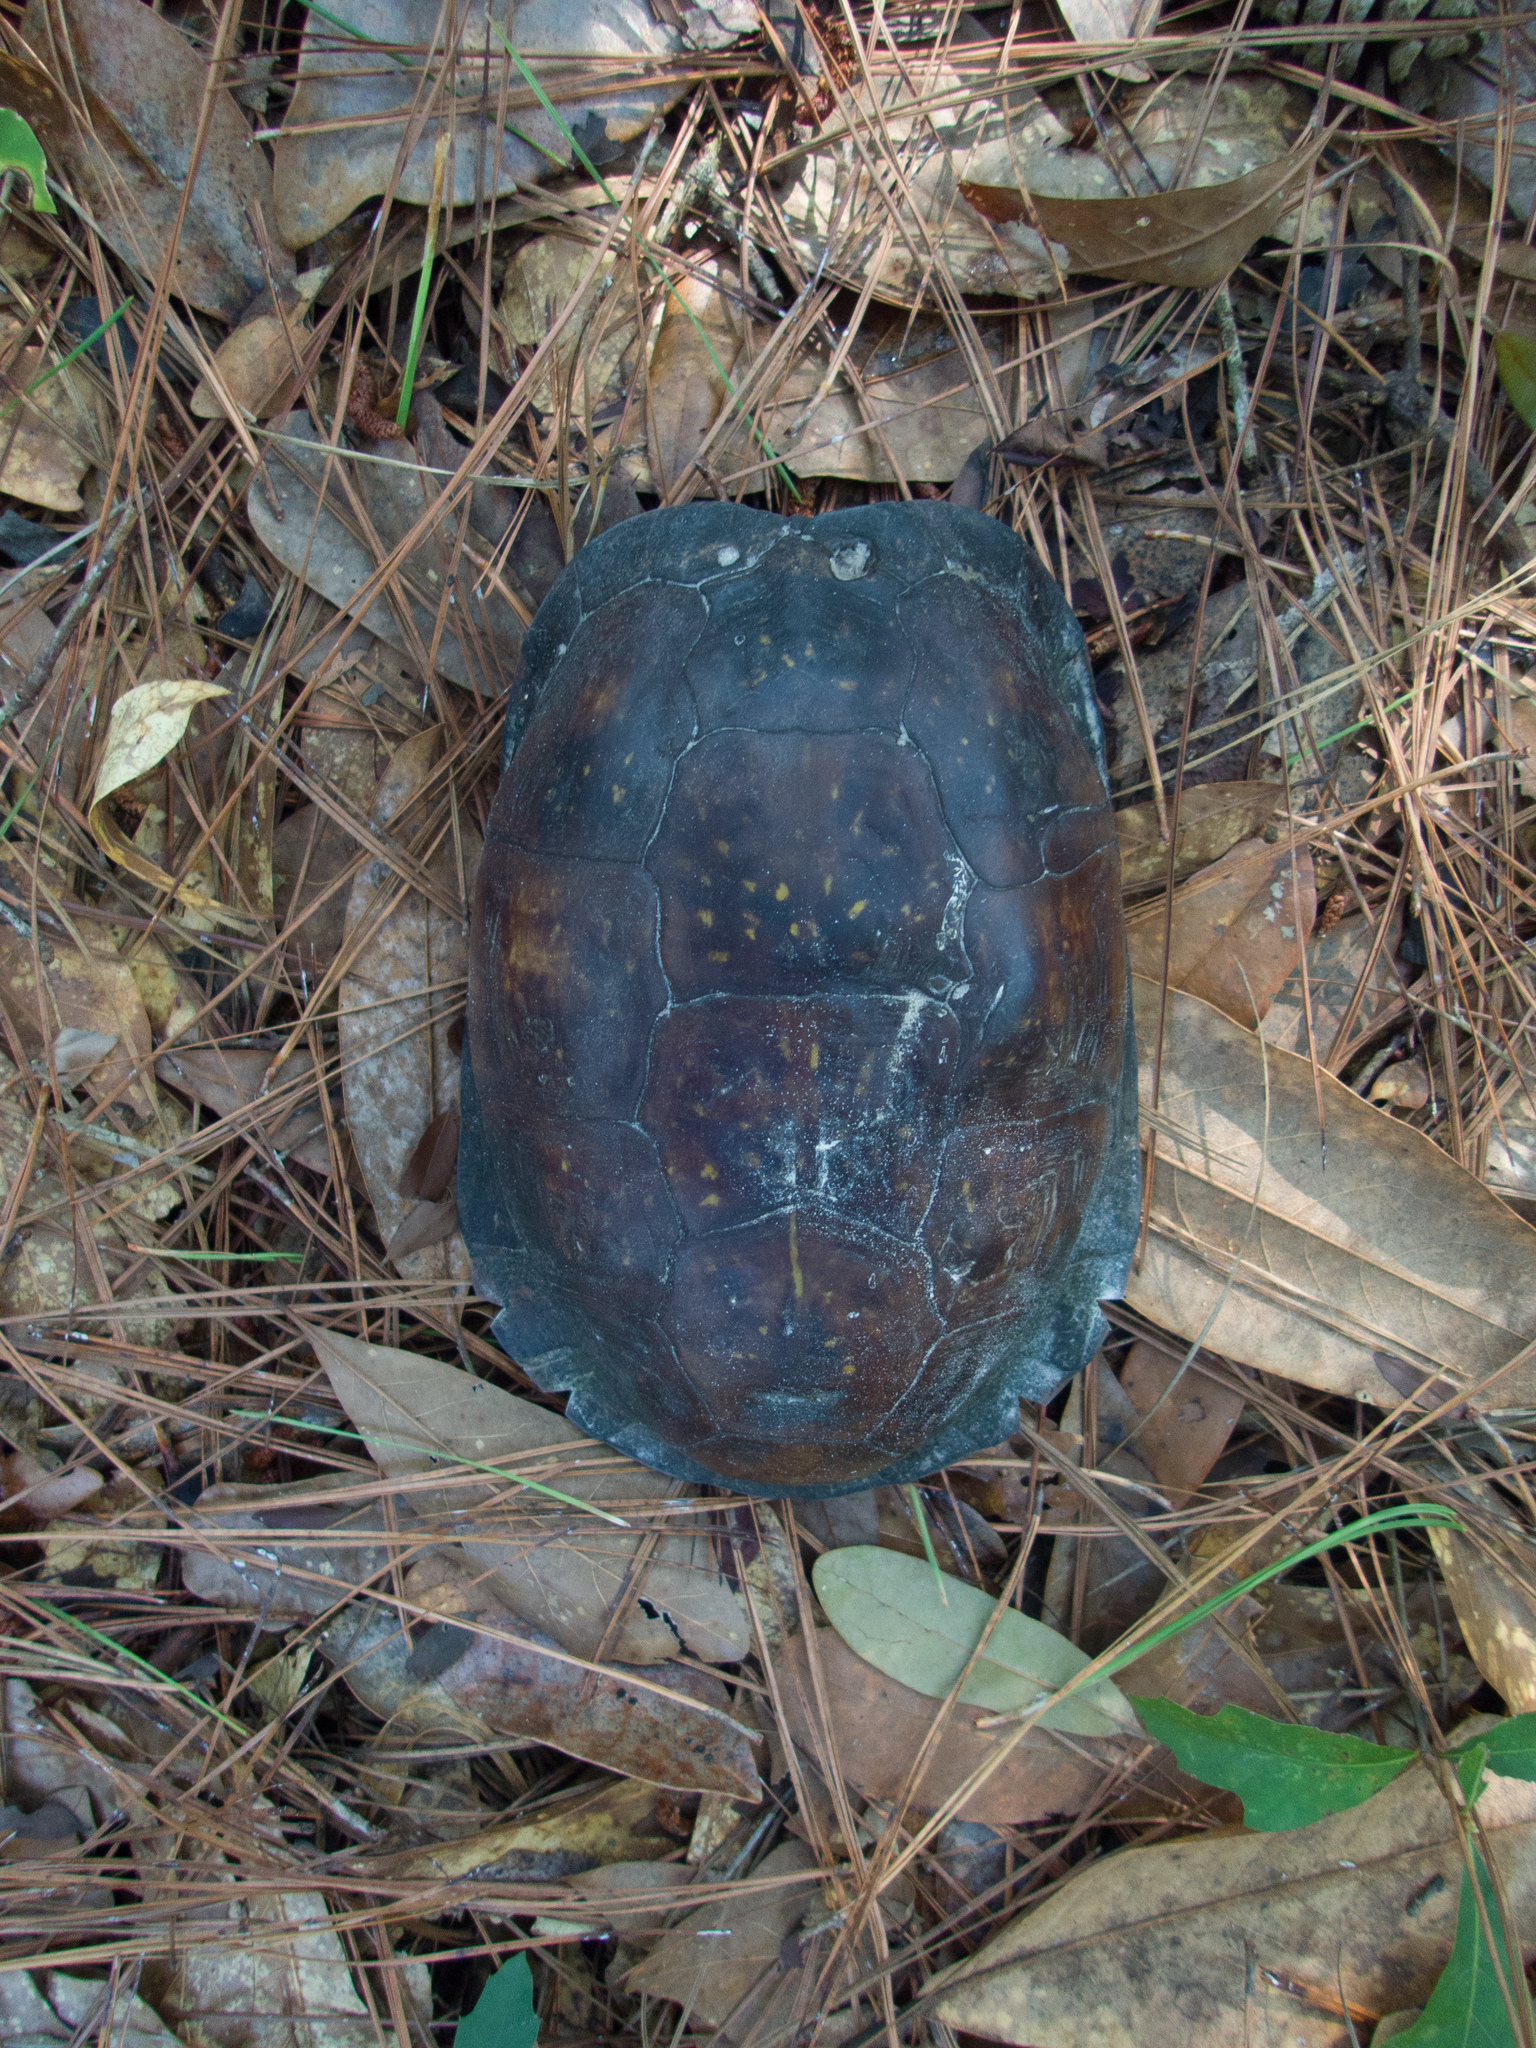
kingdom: Animalia
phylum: Chordata
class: Testudines
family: Emydidae
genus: Terrapene
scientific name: Terrapene carolina
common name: Common box turtle
